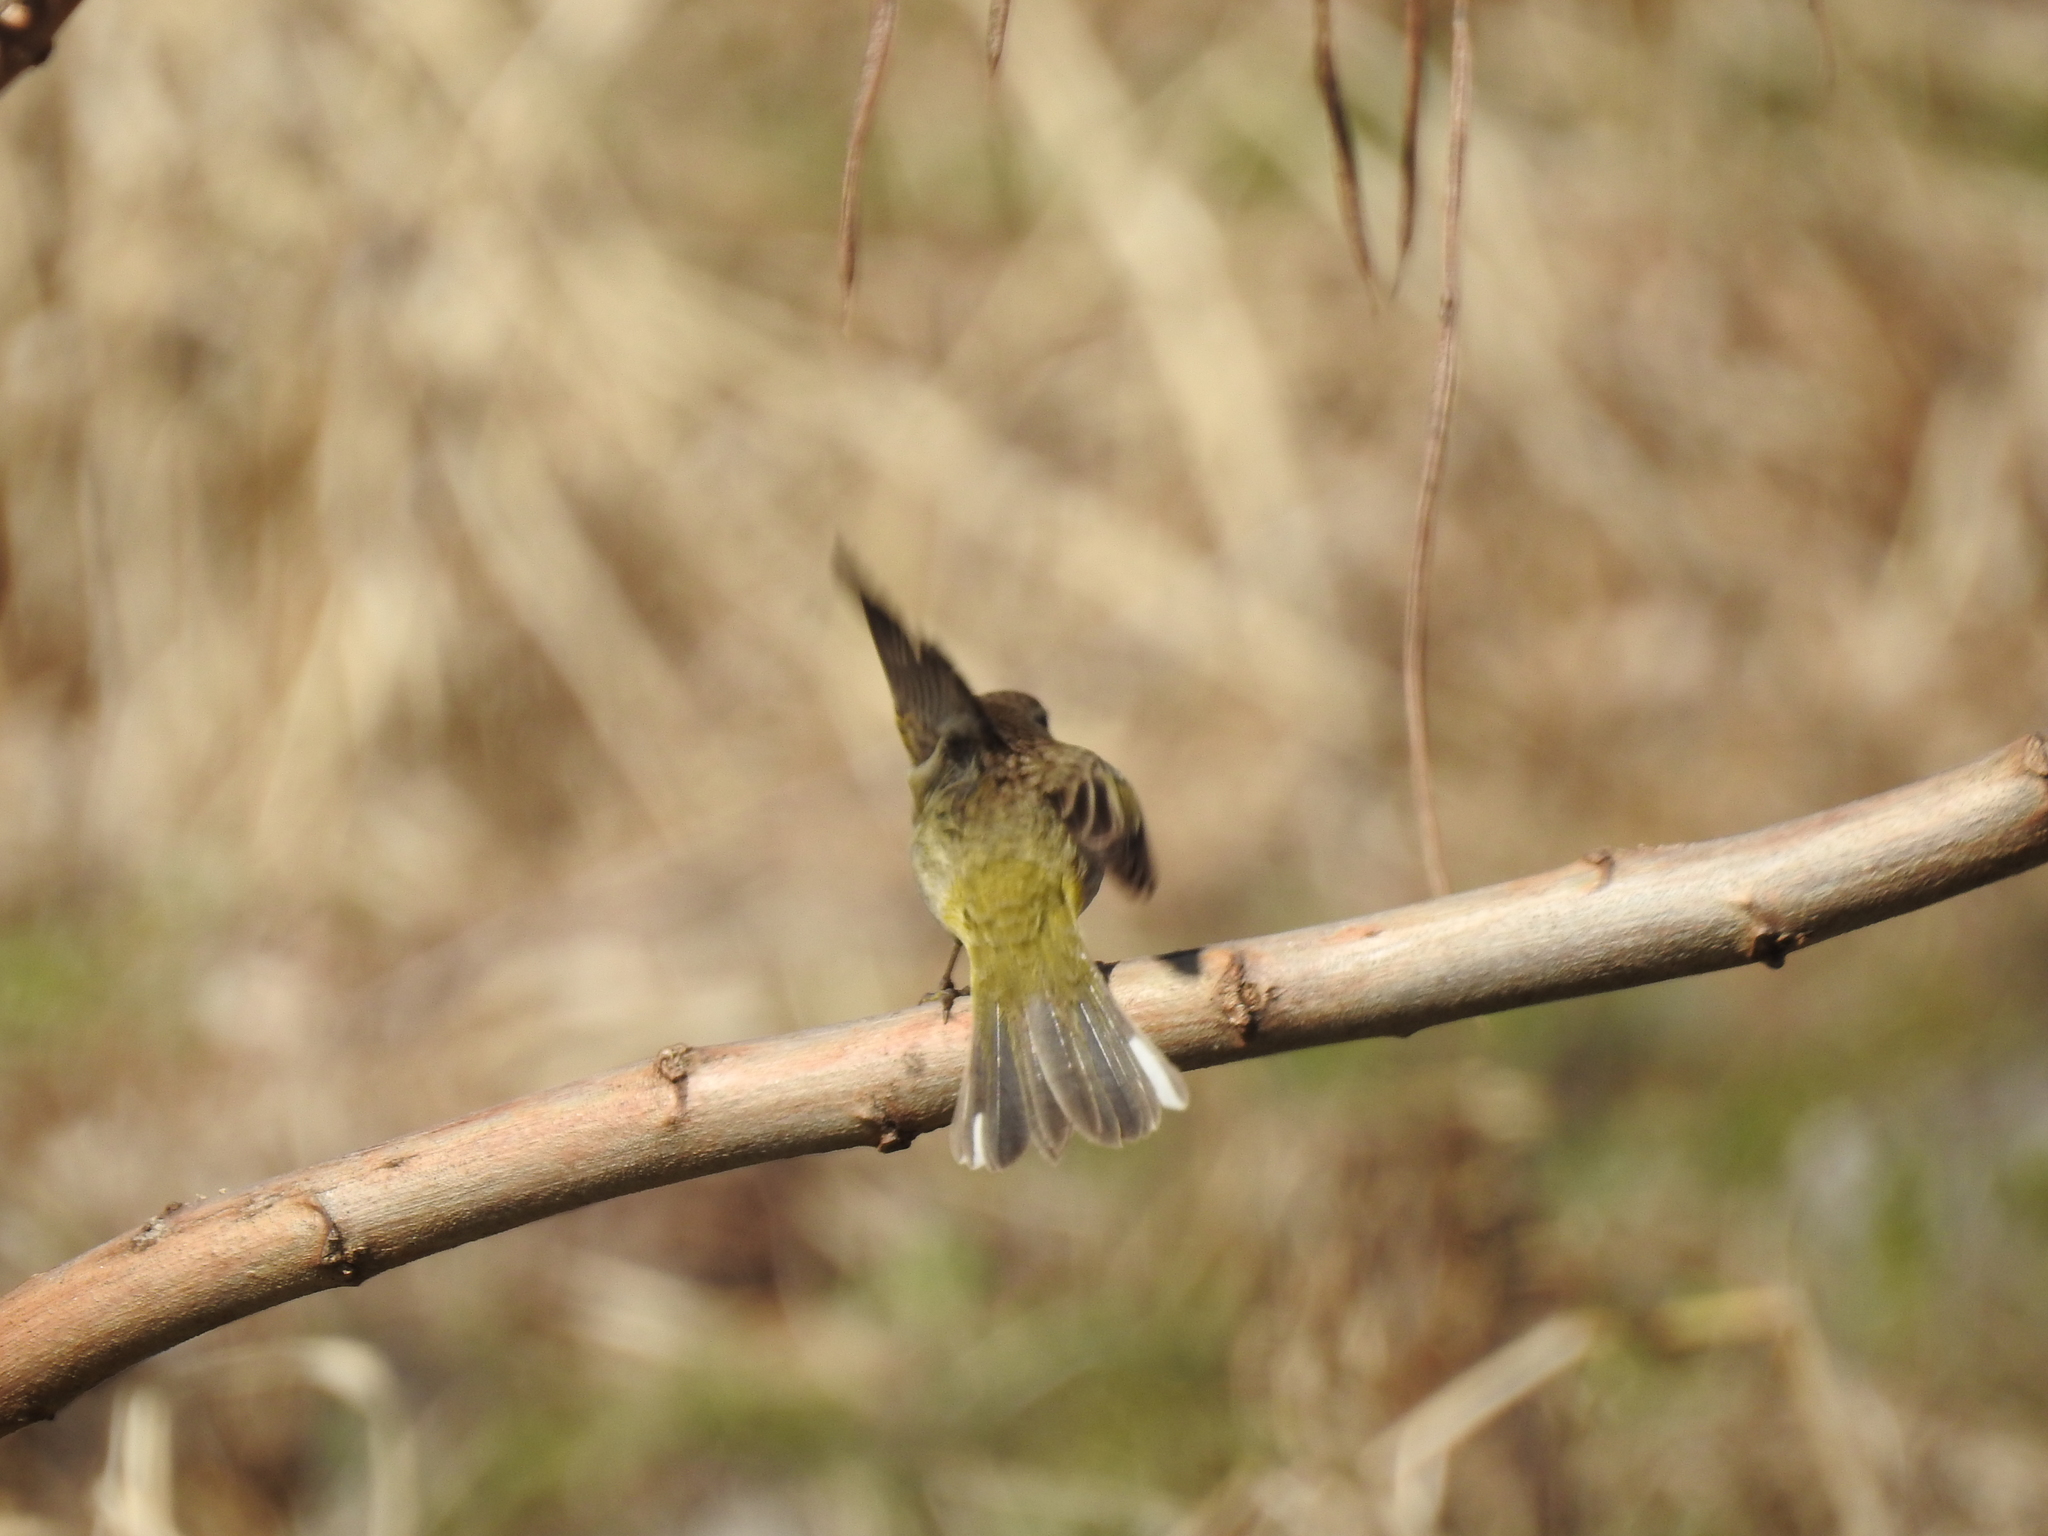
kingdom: Animalia
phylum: Chordata
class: Aves
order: Passeriformes
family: Parulidae
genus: Setophaga
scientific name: Setophaga palmarum
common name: Palm warbler
